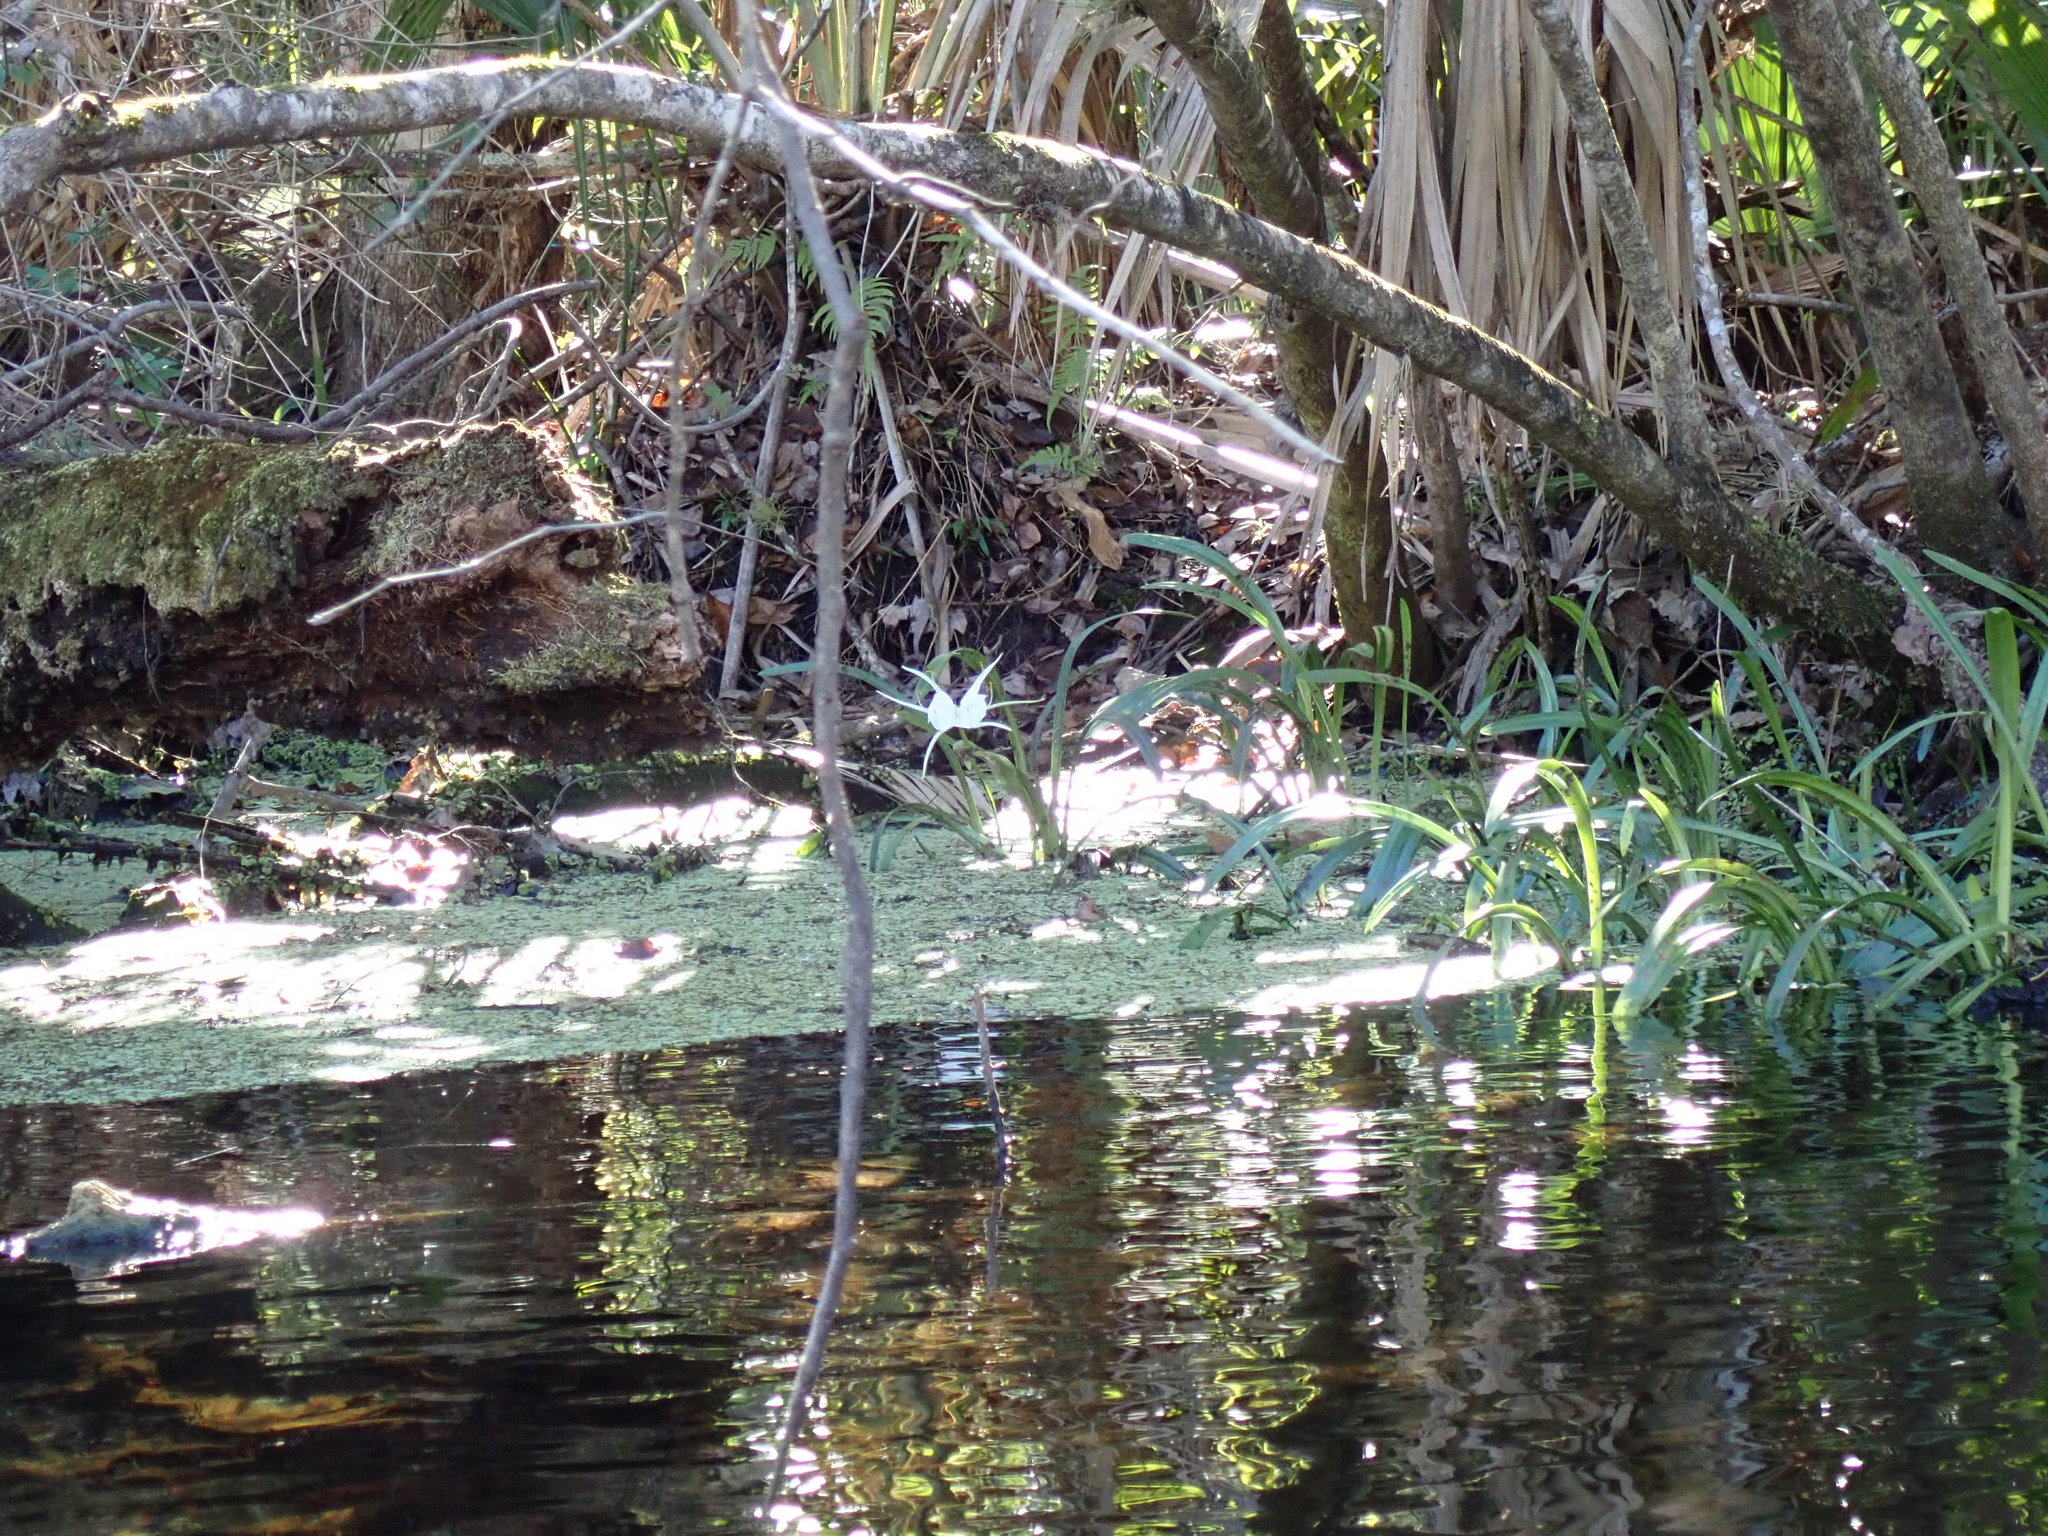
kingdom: Plantae
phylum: Tracheophyta
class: Liliopsida
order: Asparagales
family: Amaryllidaceae
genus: Hymenocallis
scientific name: Hymenocallis tridentata
